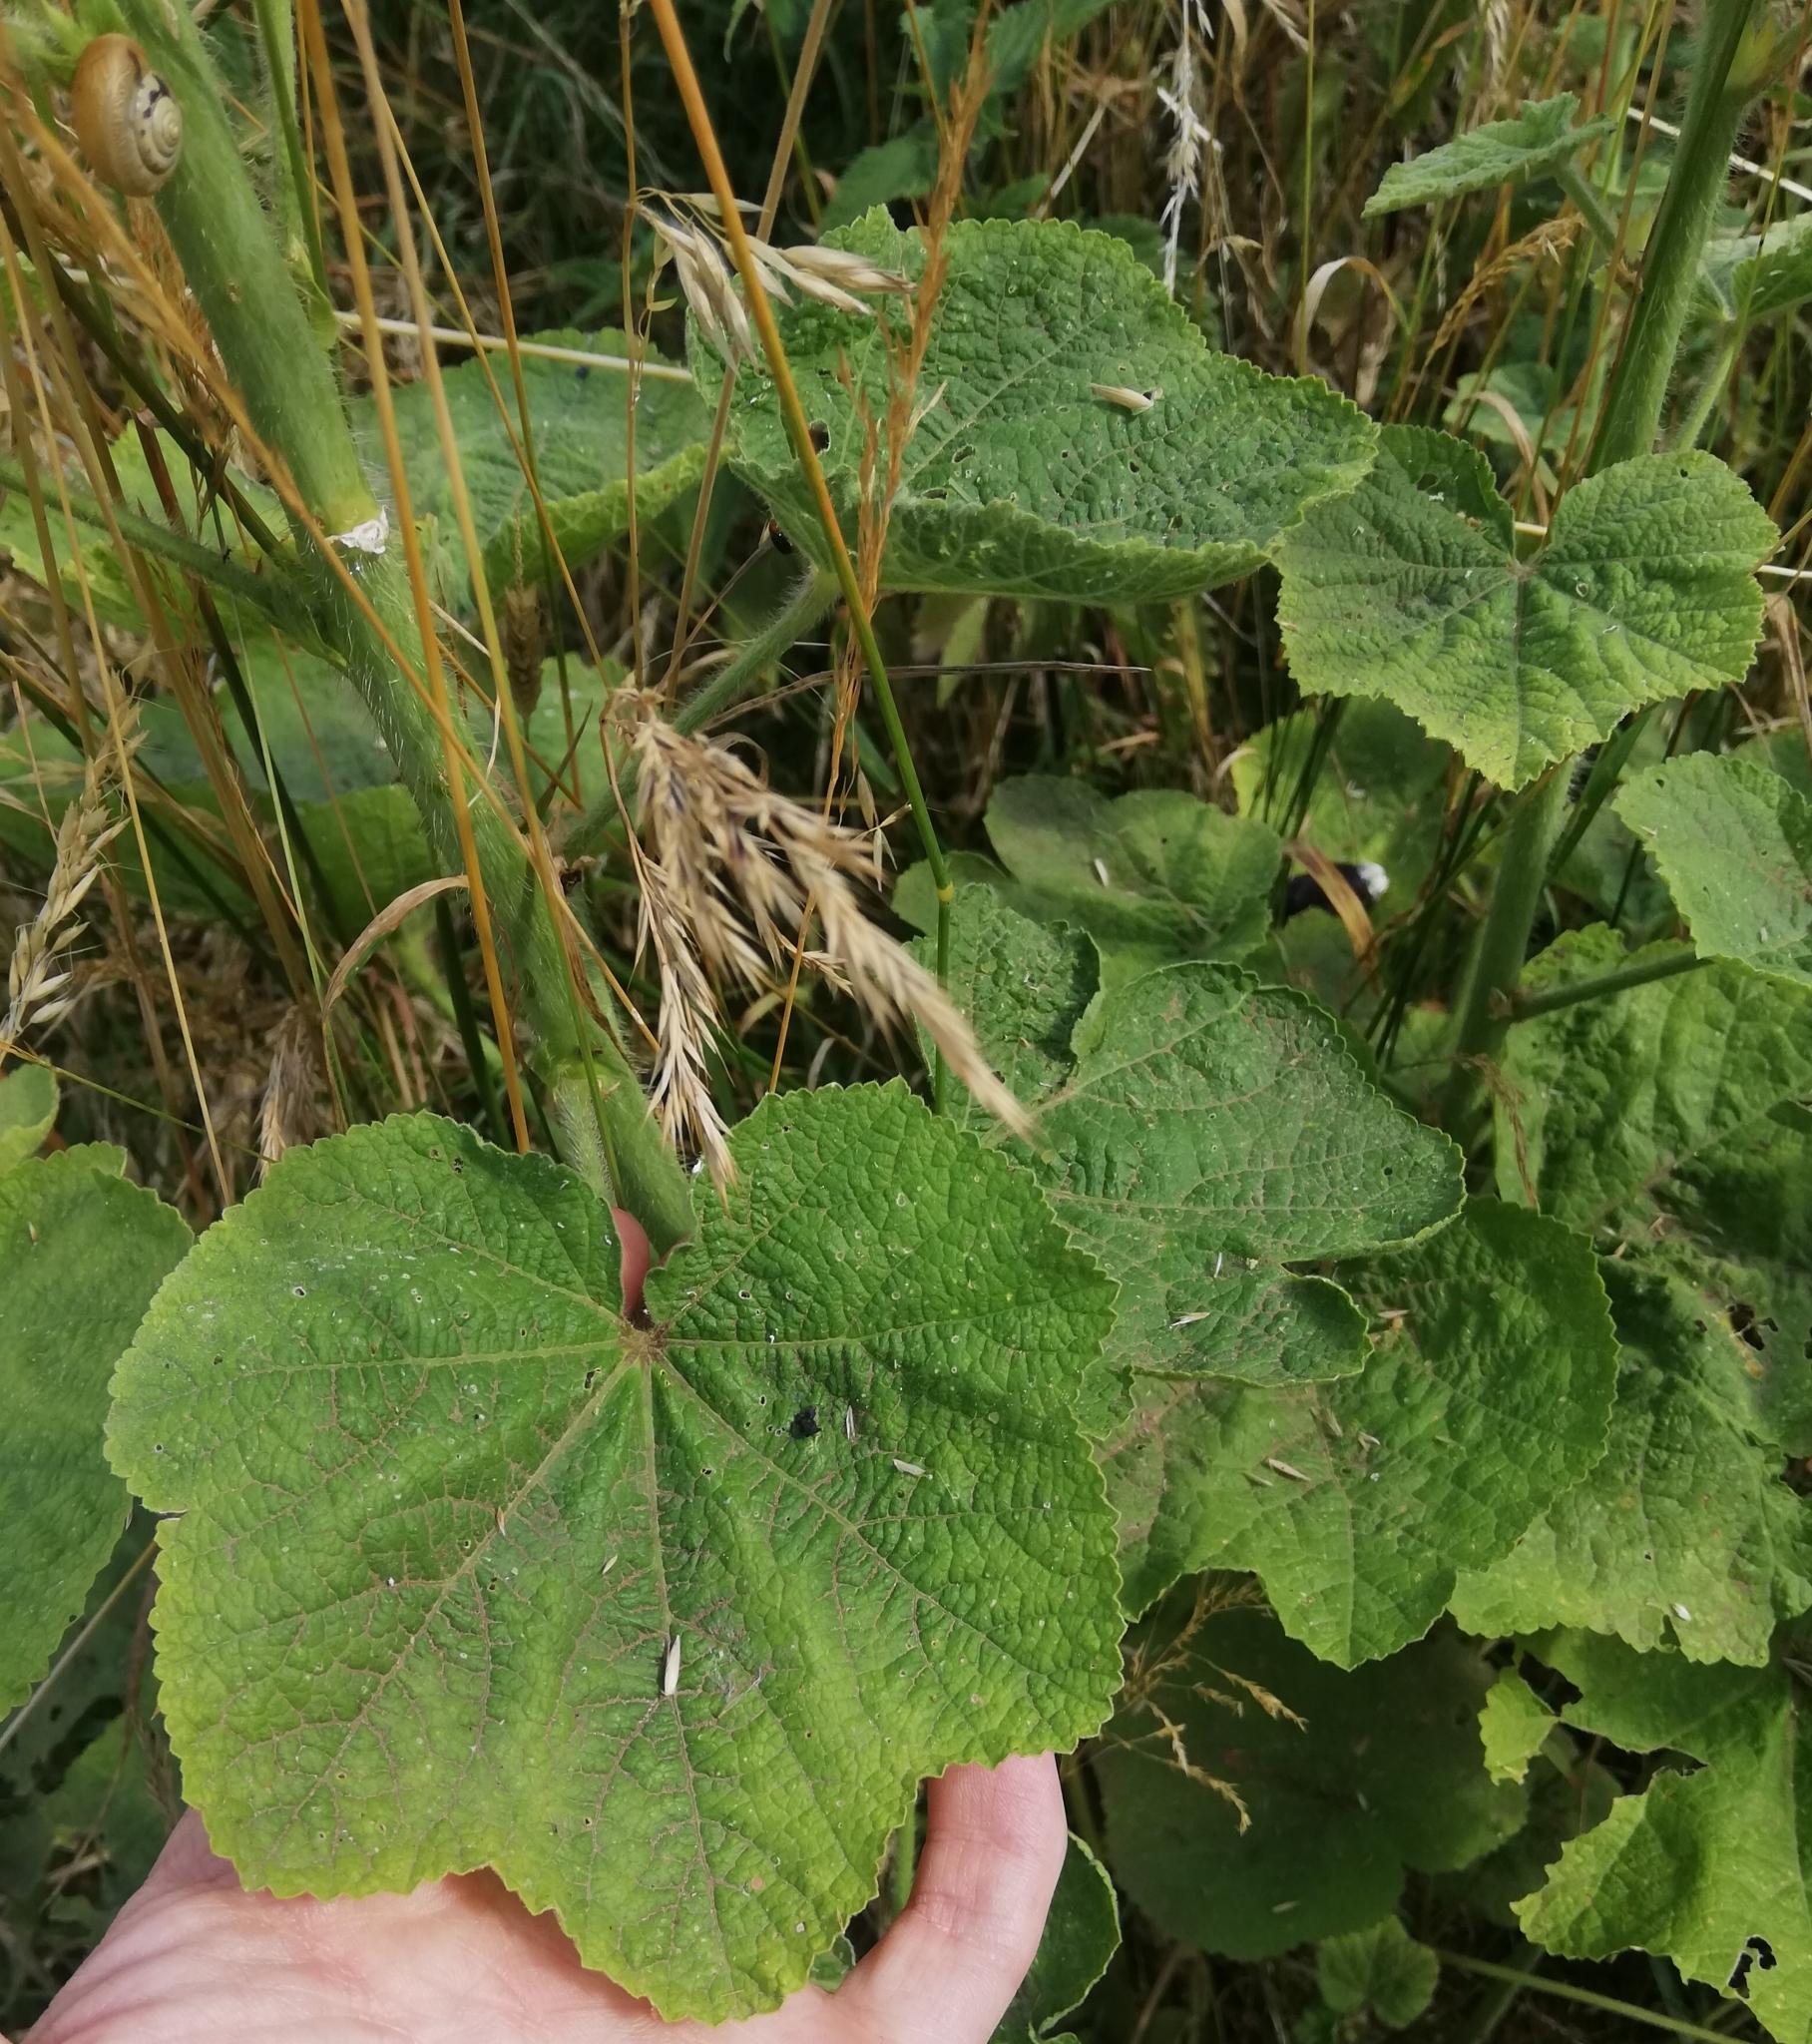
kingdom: Plantae
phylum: Tracheophyta
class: Magnoliopsida
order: Malvales
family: Malvaceae
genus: Alcea
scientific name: Alcea rosea
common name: Hollyhock
